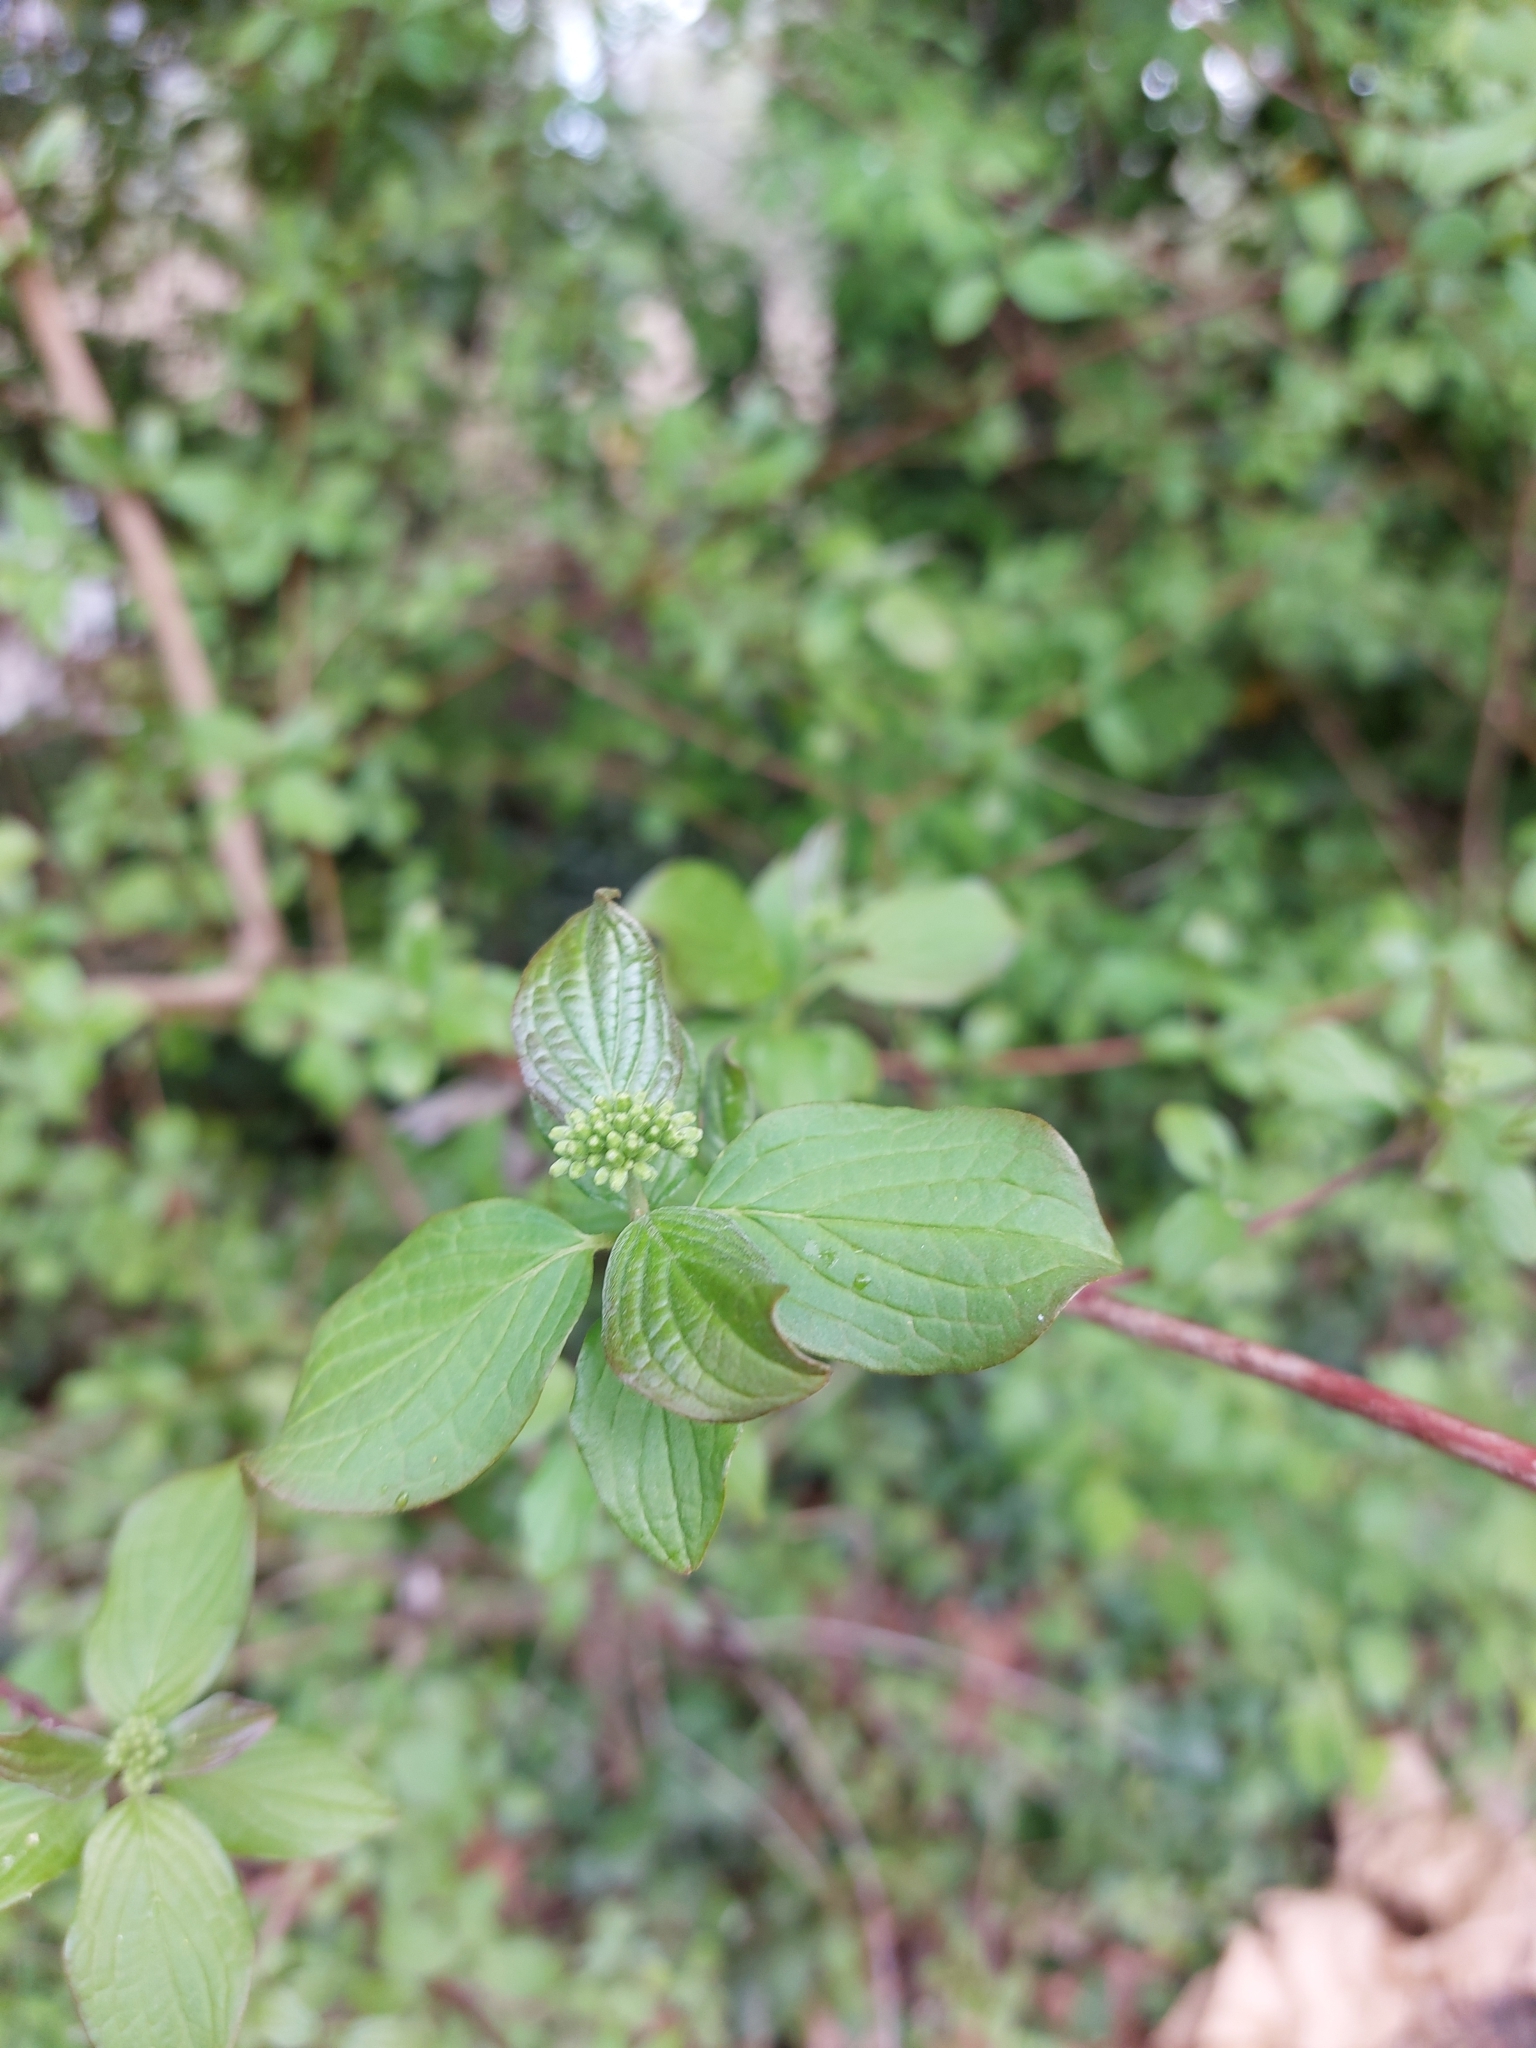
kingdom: Plantae
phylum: Tracheophyta
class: Magnoliopsida
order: Cornales
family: Cornaceae
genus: Cornus
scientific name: Cornus sanguinea
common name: Dogwood
